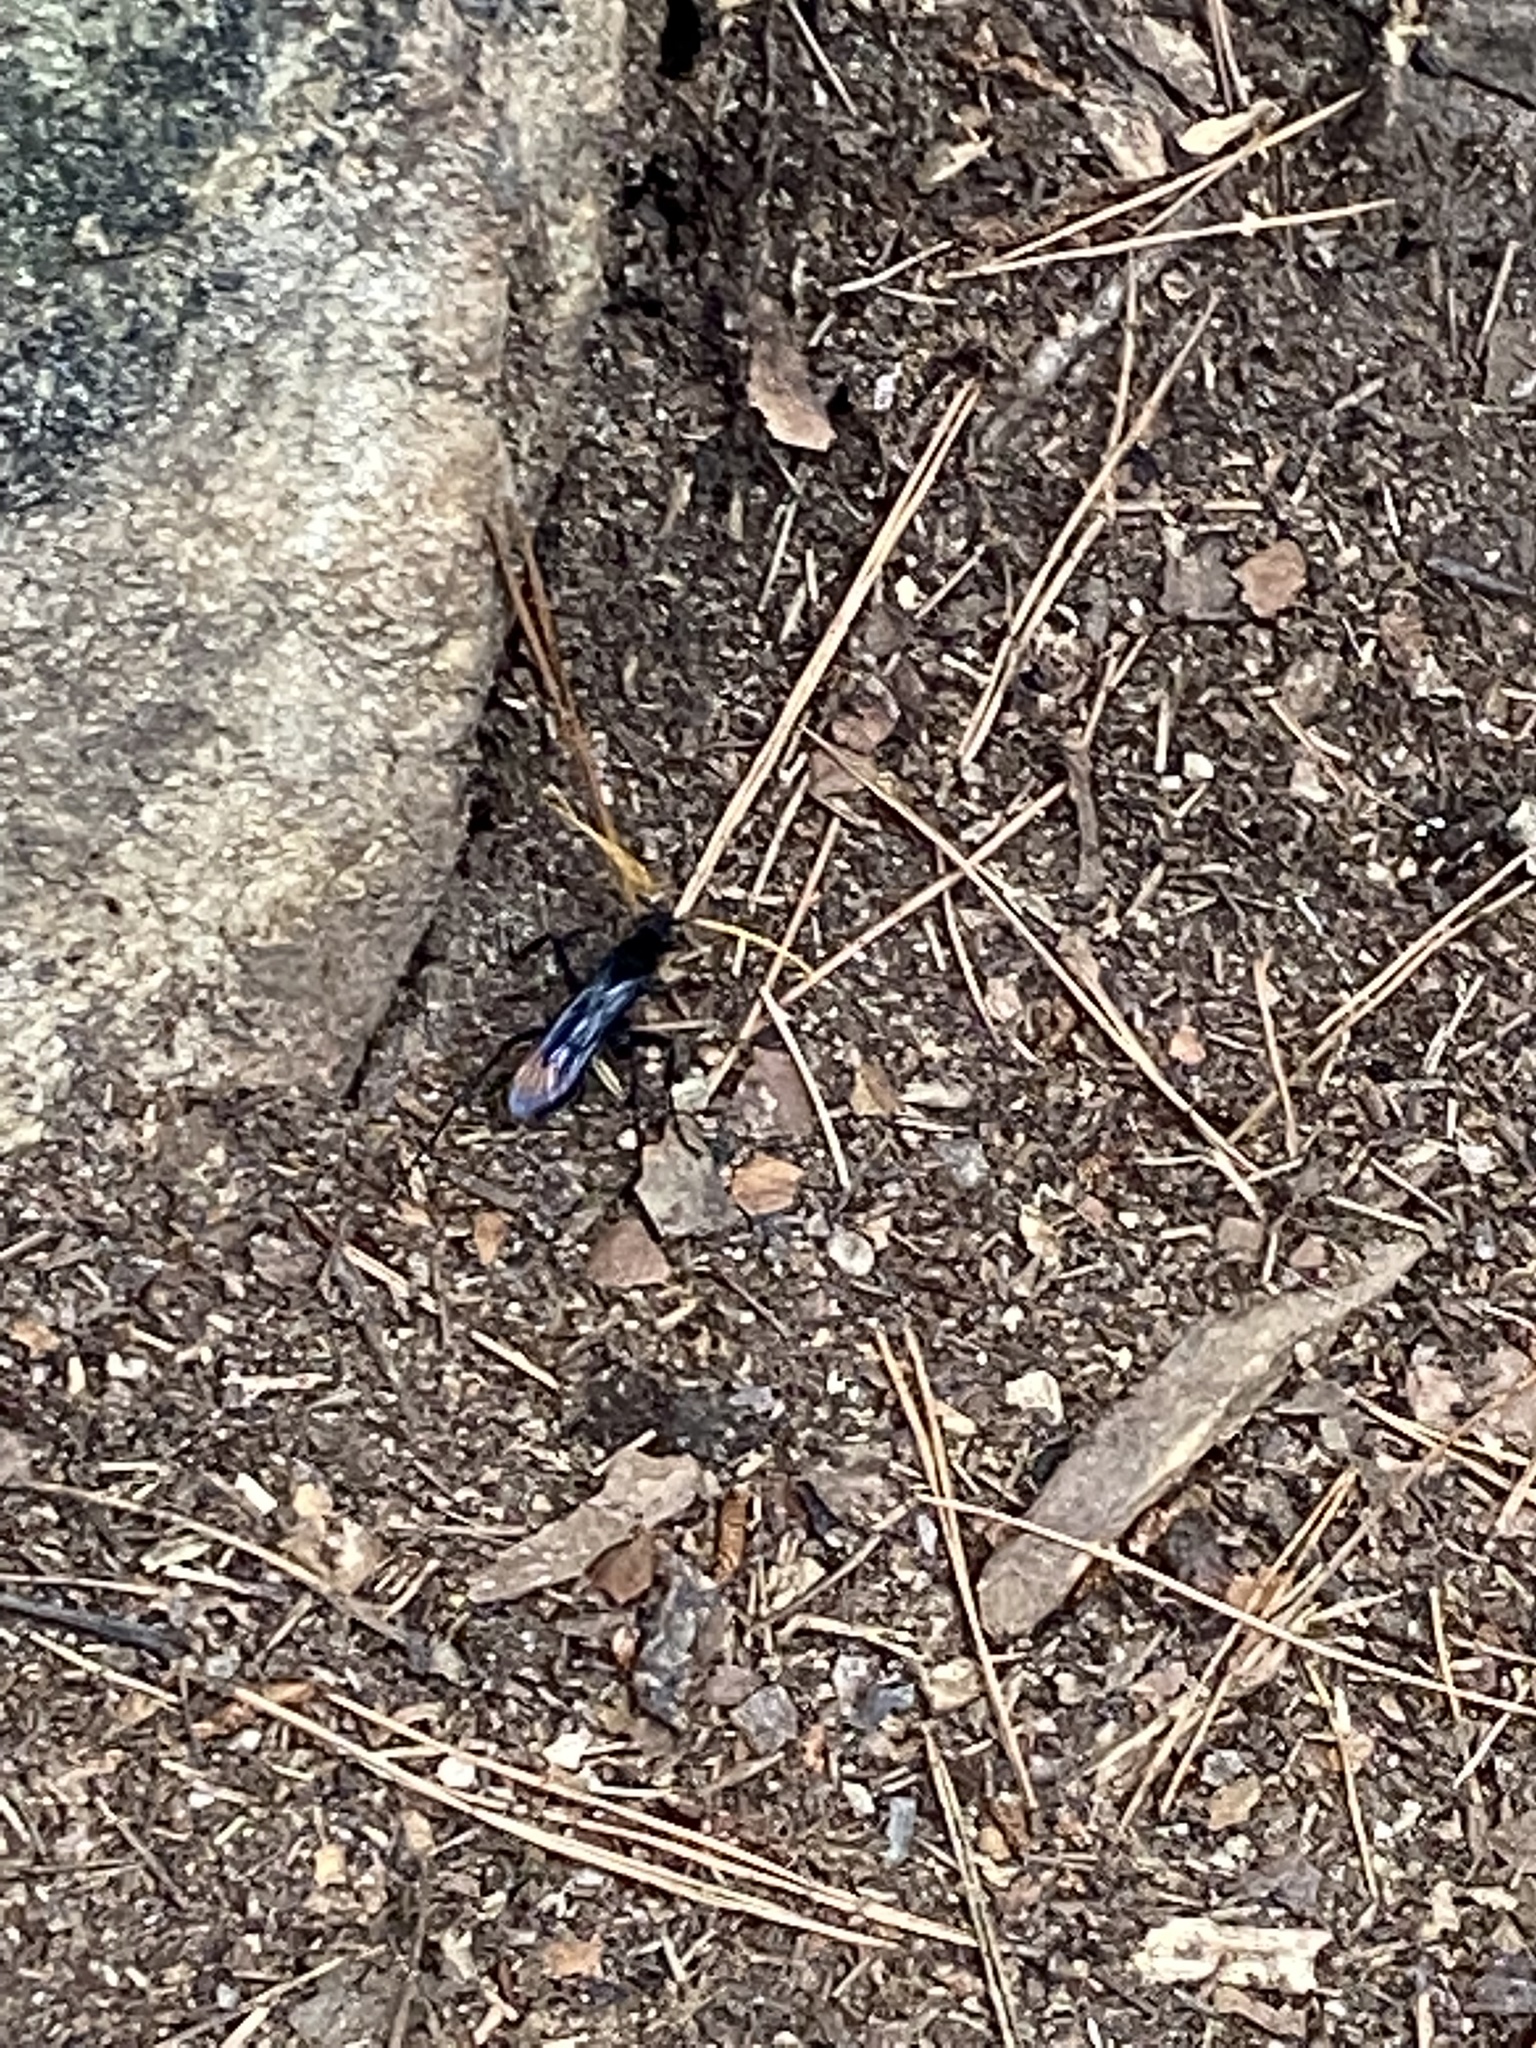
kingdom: Animalia
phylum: Arthropoda
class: Insecta
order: Hymenoptera
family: Pompilidae
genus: Entypus
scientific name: Entypus unifasciatus
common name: Eastern tawny-horned spider wasp
